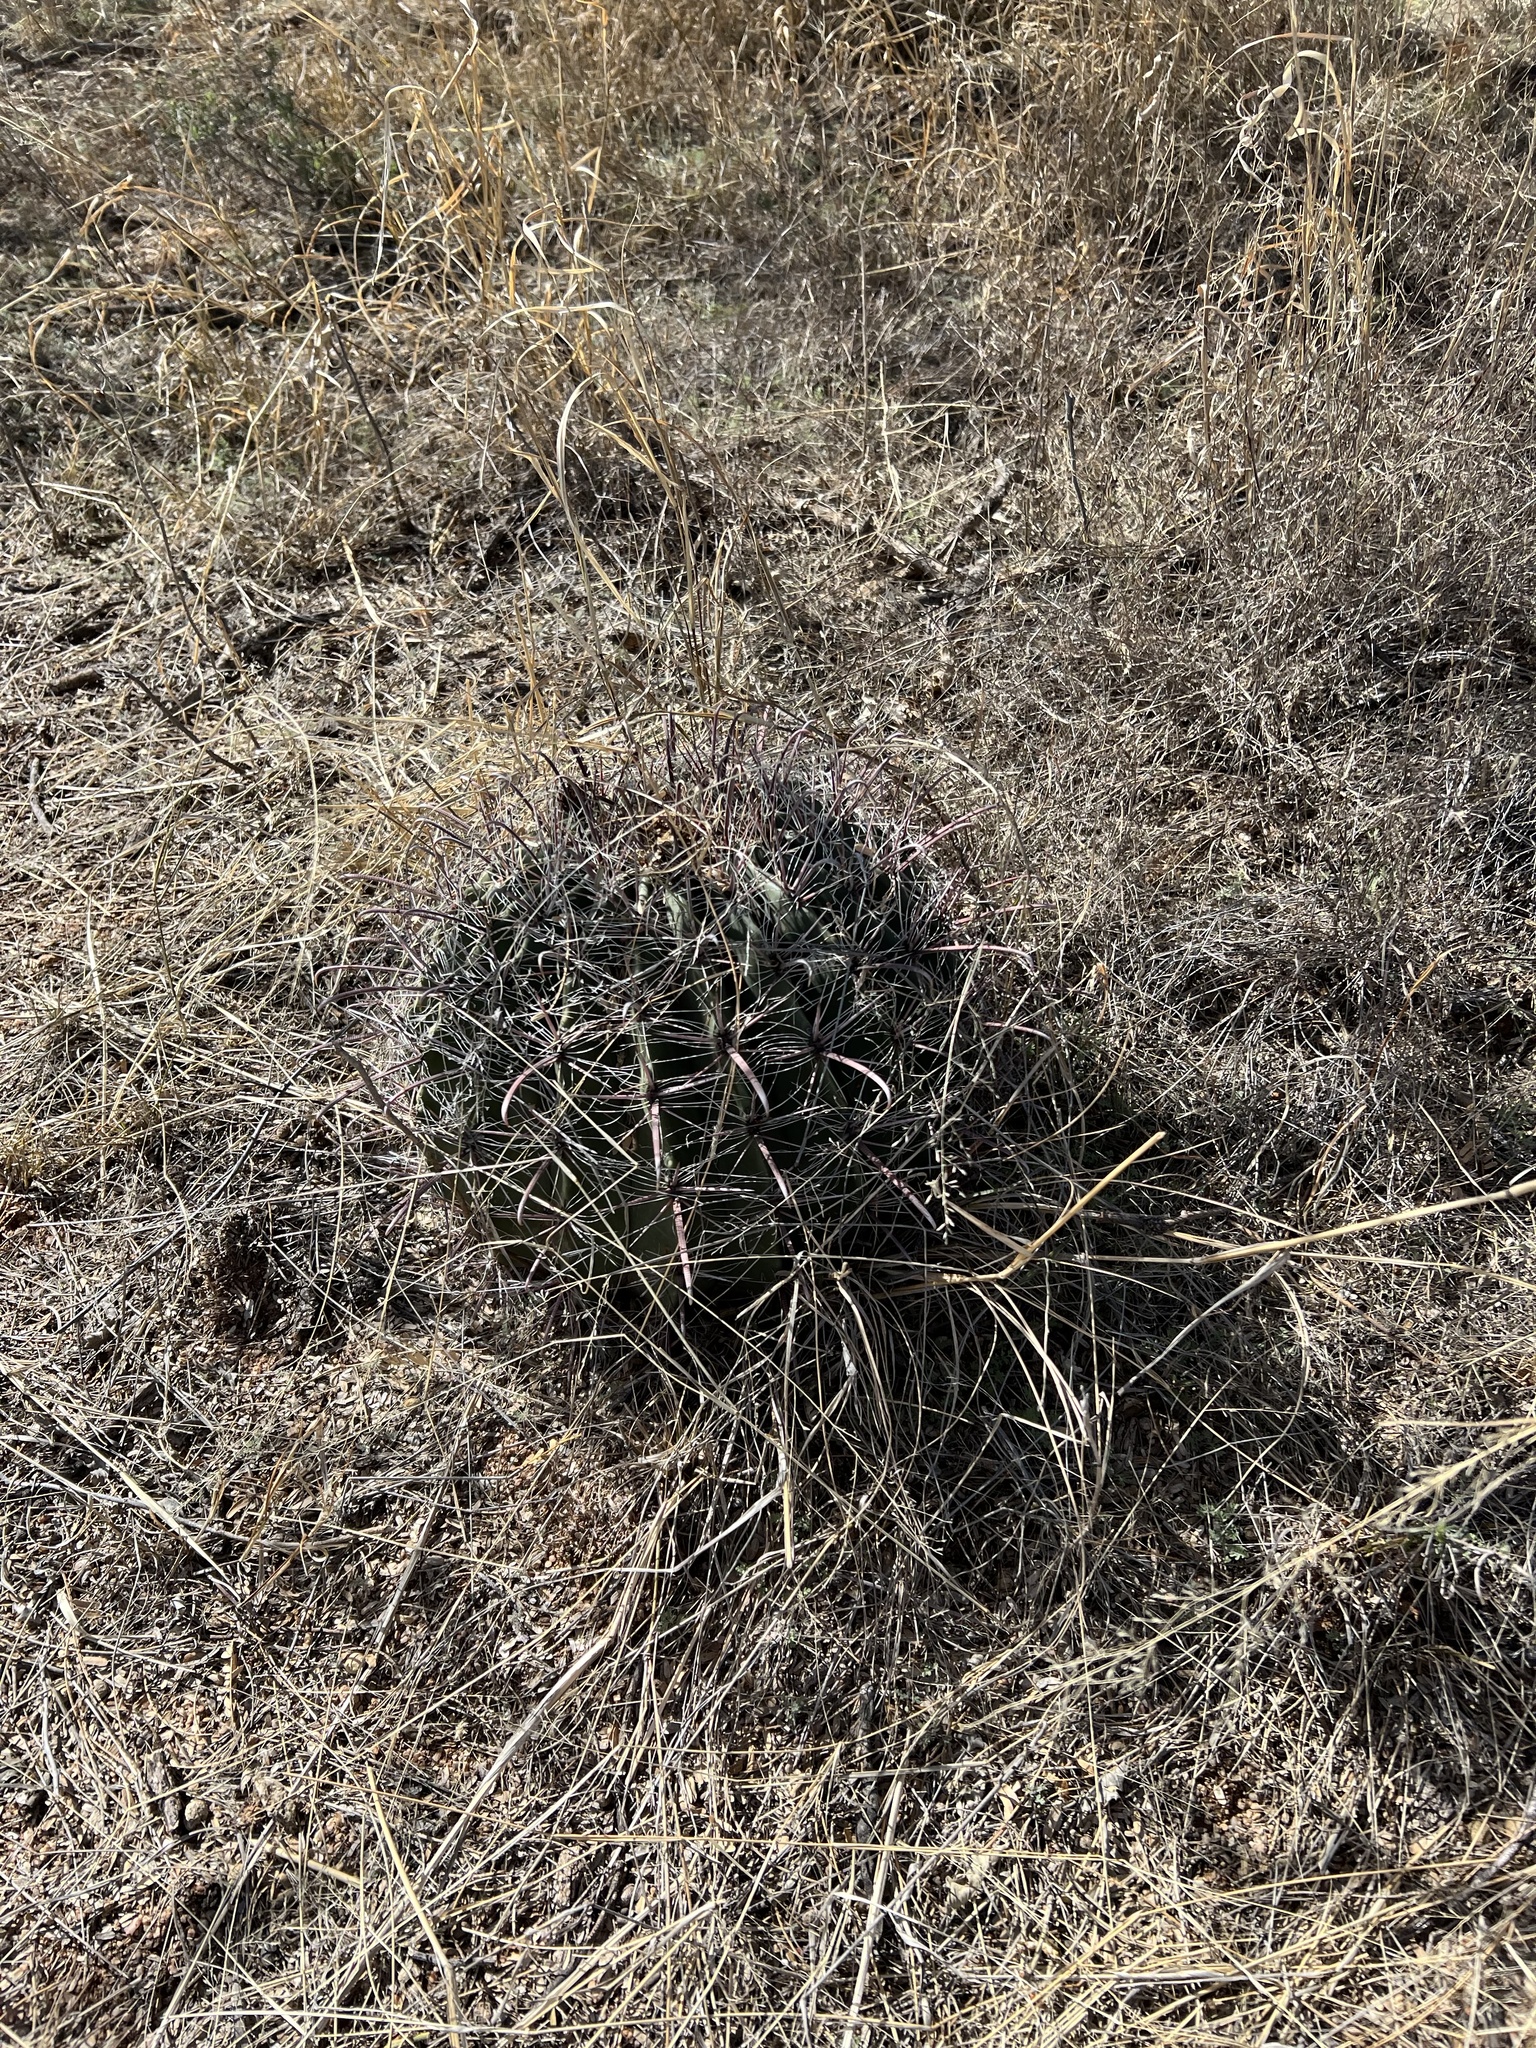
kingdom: Plantae
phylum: Tracheophyta
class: Magnoliopsida
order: Caryophyllales
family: Cactaceae
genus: Ferocactus
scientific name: Ferocactus wislizeni
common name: Candy barrel cactus
